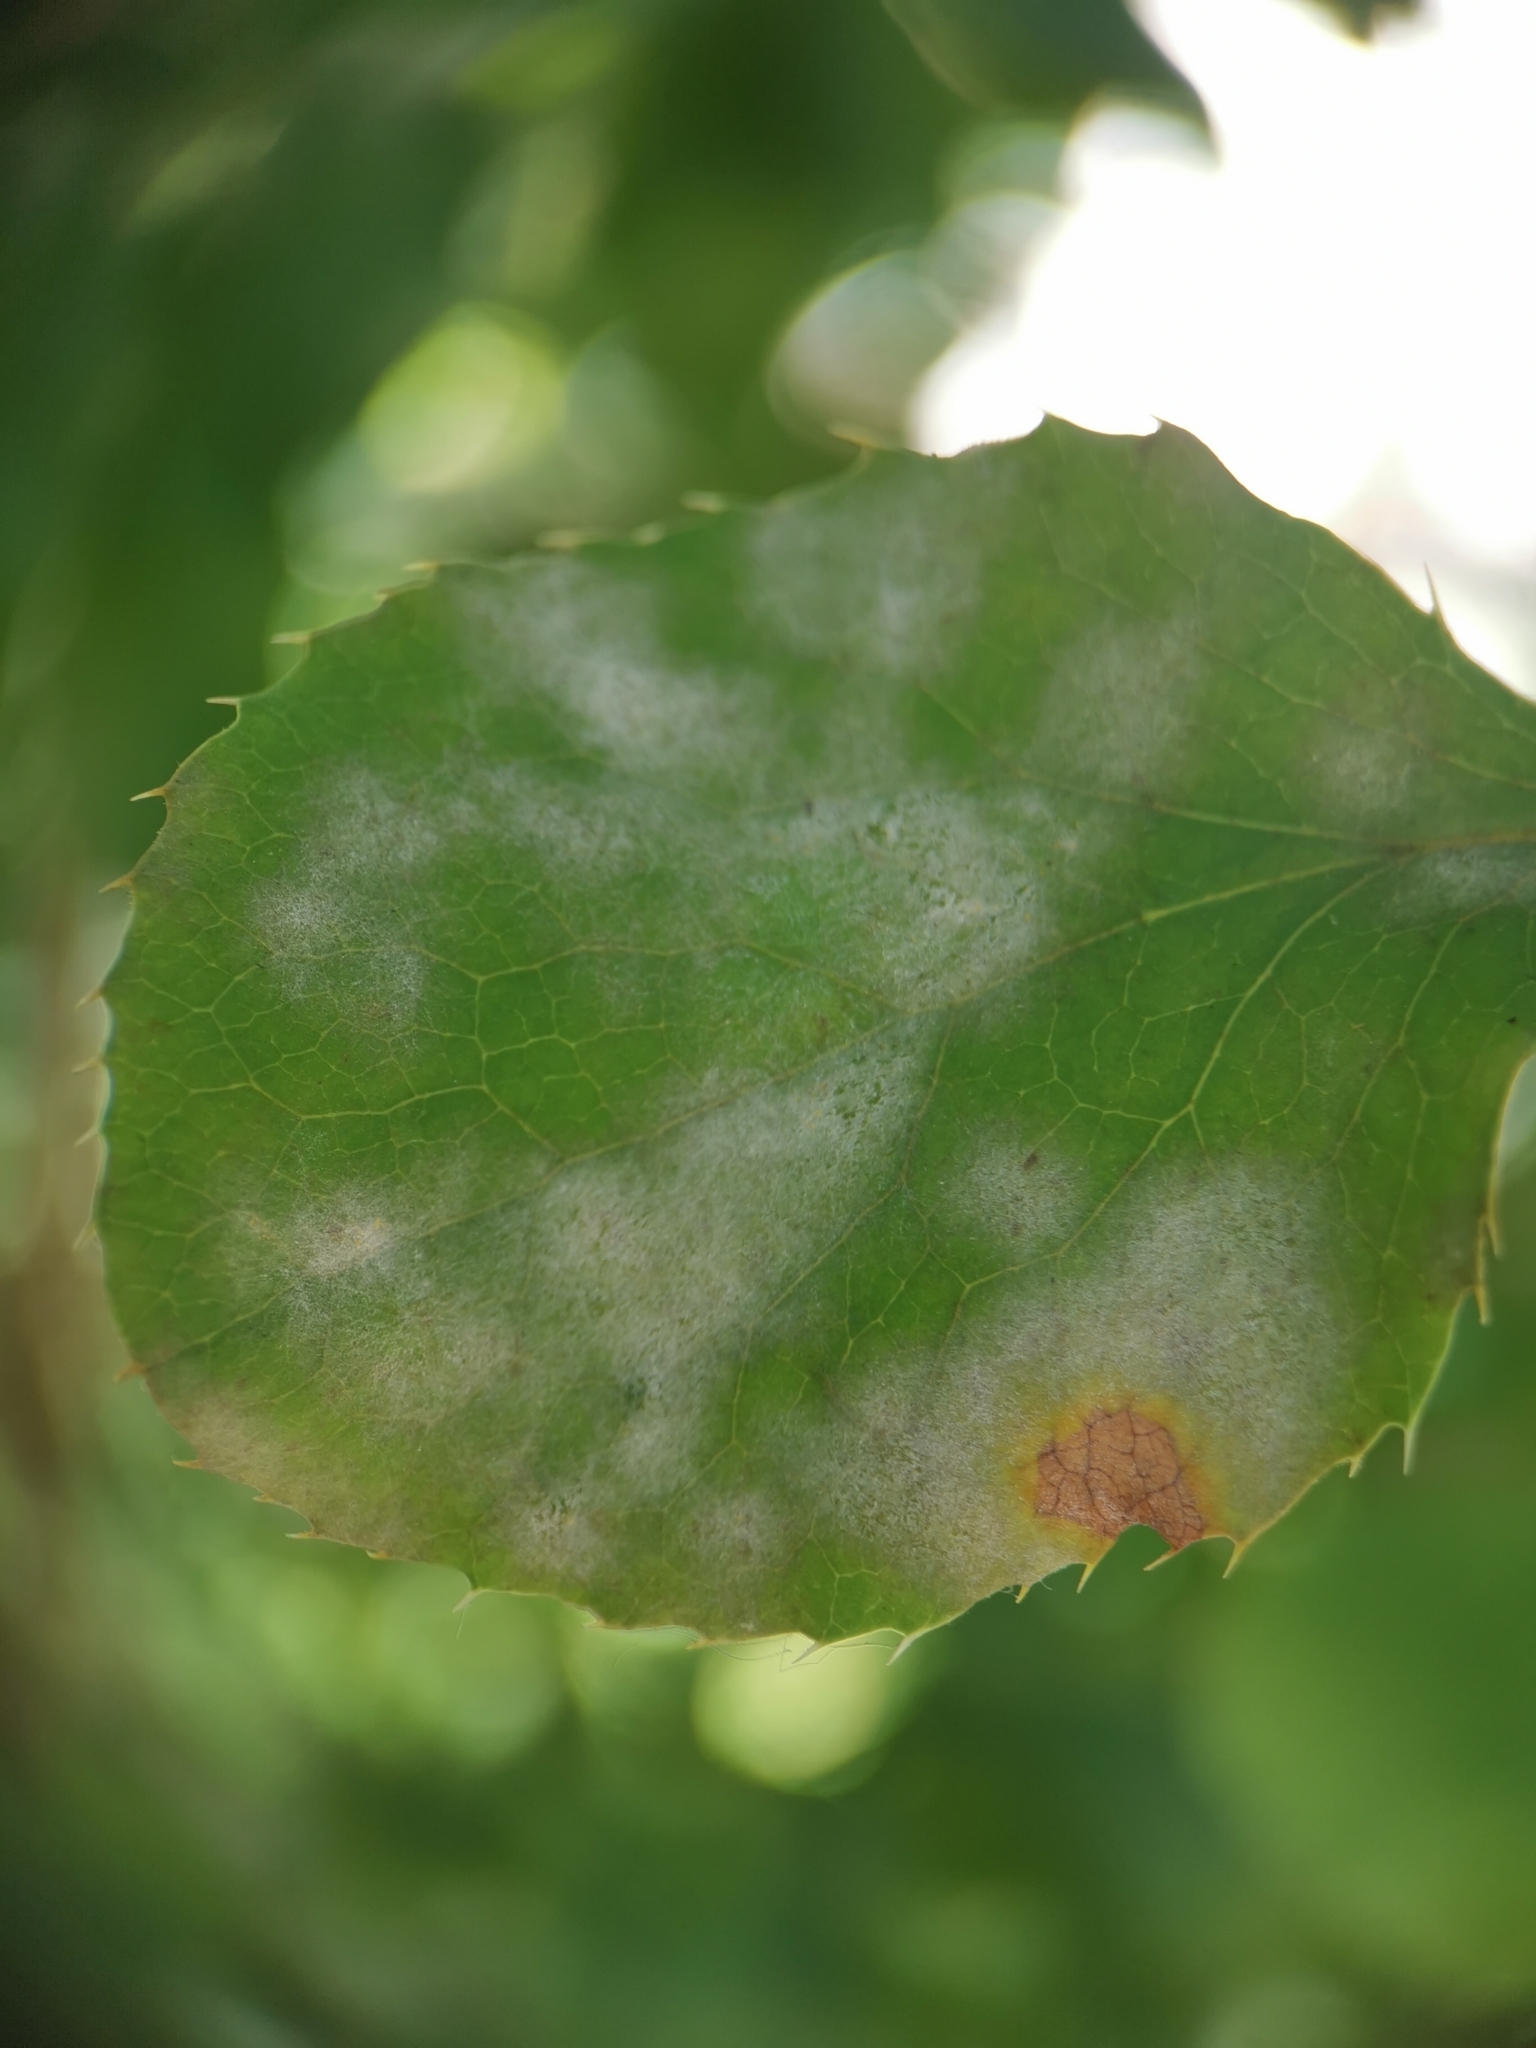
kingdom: Fungi
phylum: Ascomycota
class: Leotiomycetes
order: Helotiales
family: Erysiphaceae
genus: Erysiphe
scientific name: Erysiphe berberidis
